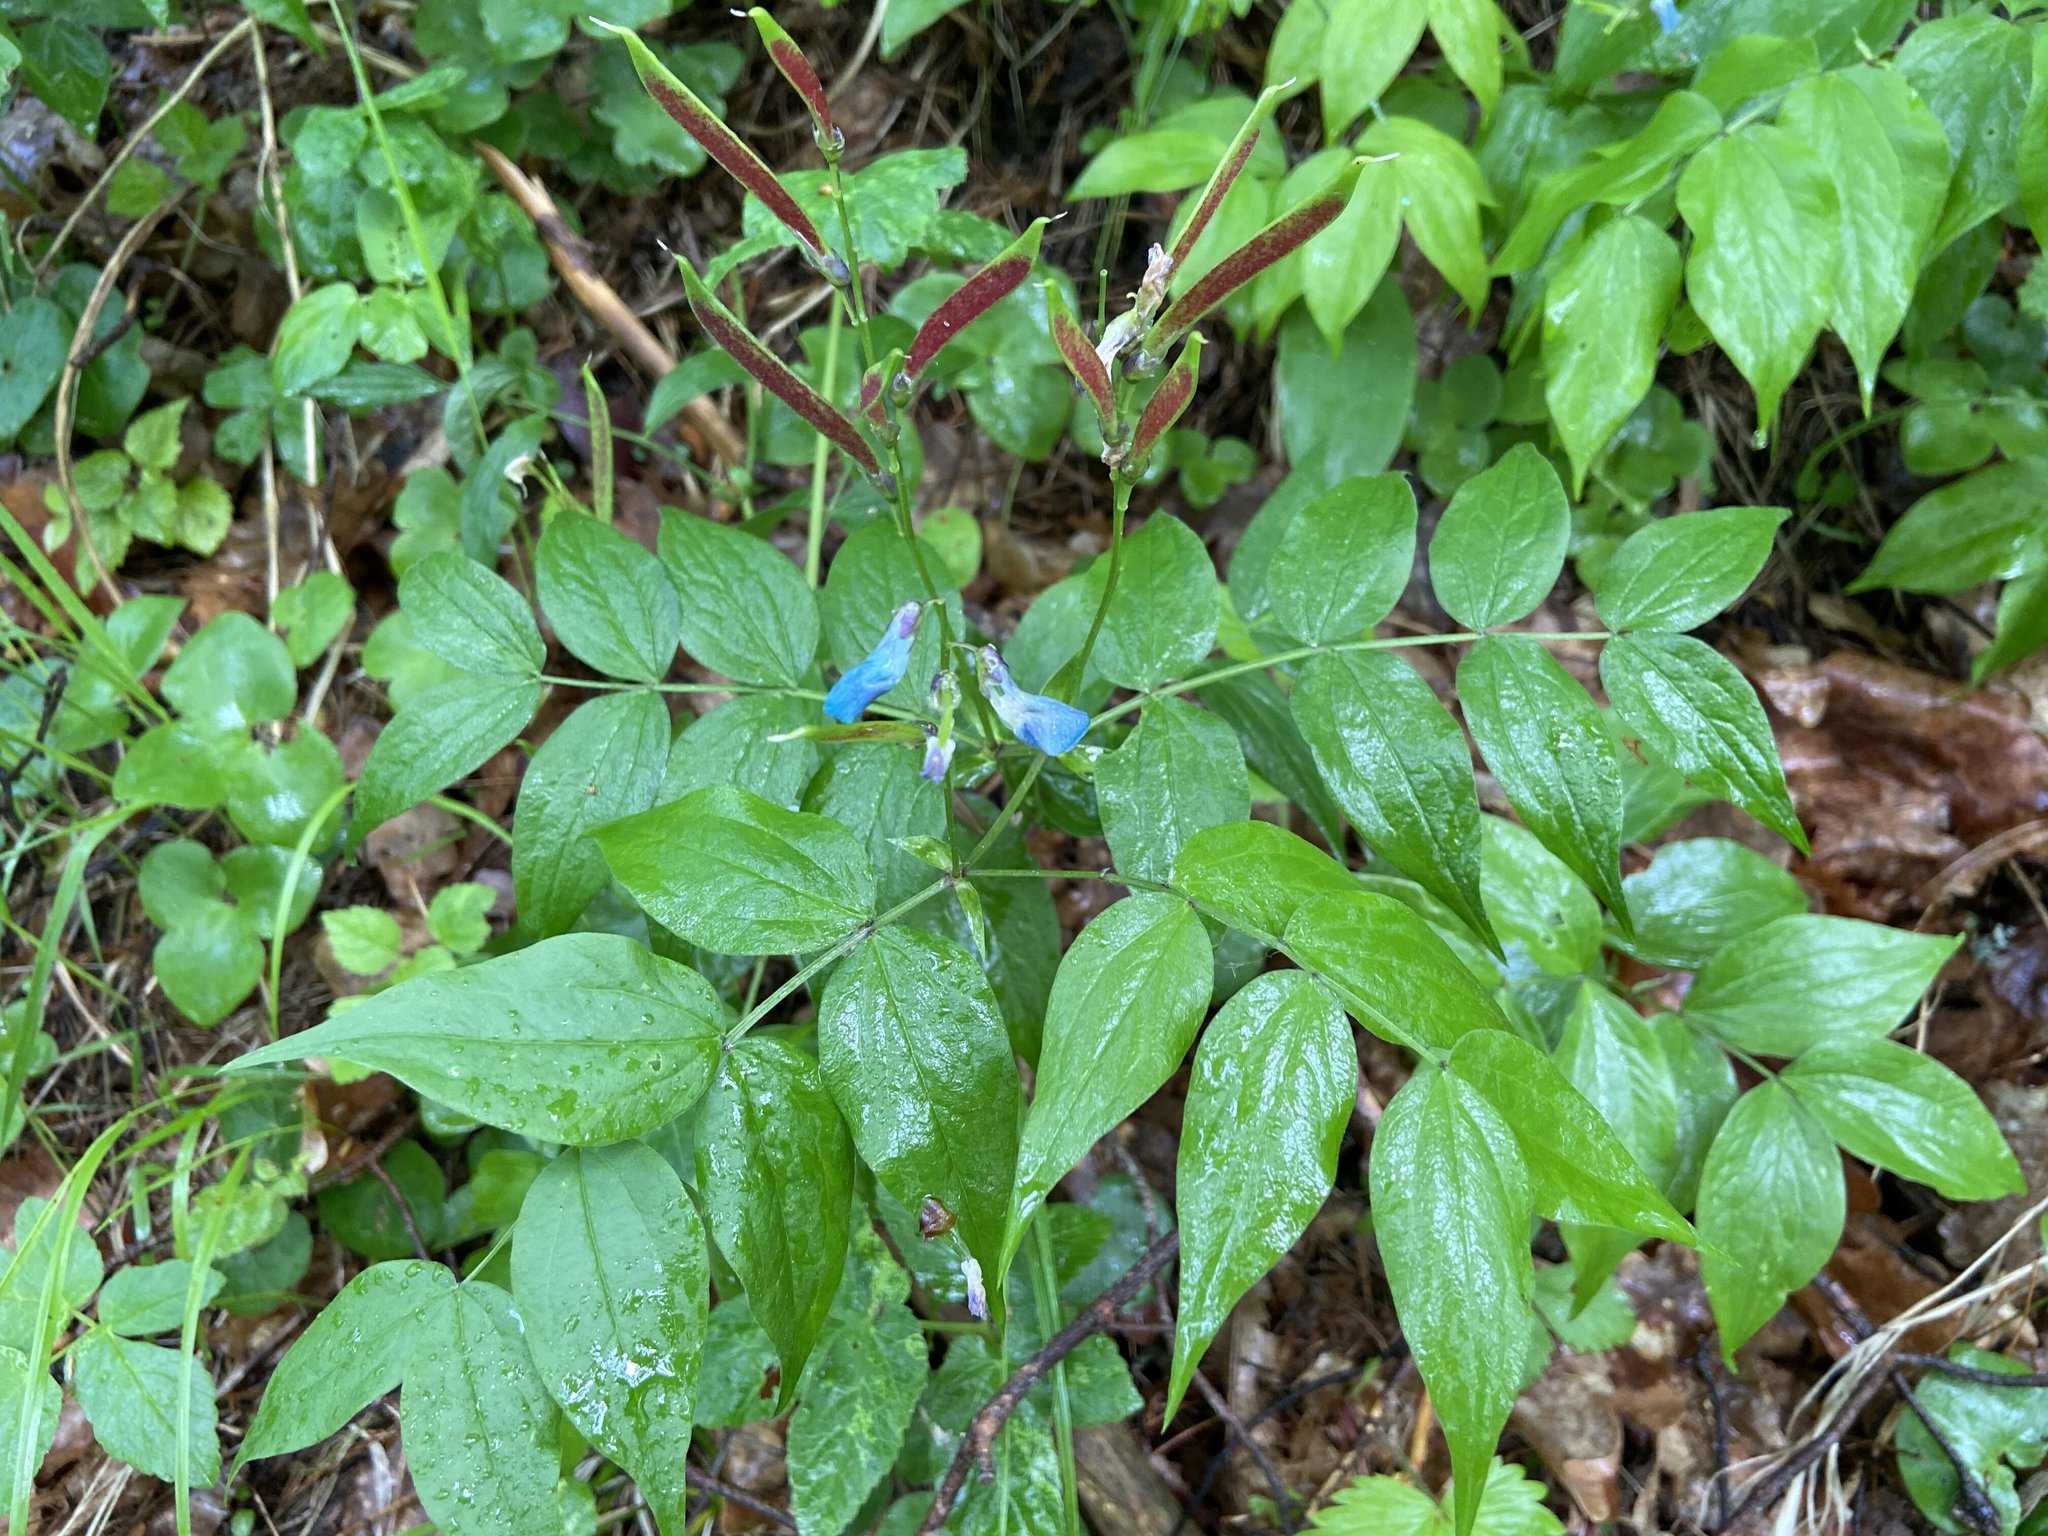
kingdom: Plantae
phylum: Tracheophyta
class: Magnoliopsida
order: Fabales
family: Fabaceae
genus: Lathyrus
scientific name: Lathyrus vernus
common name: Spring pea
